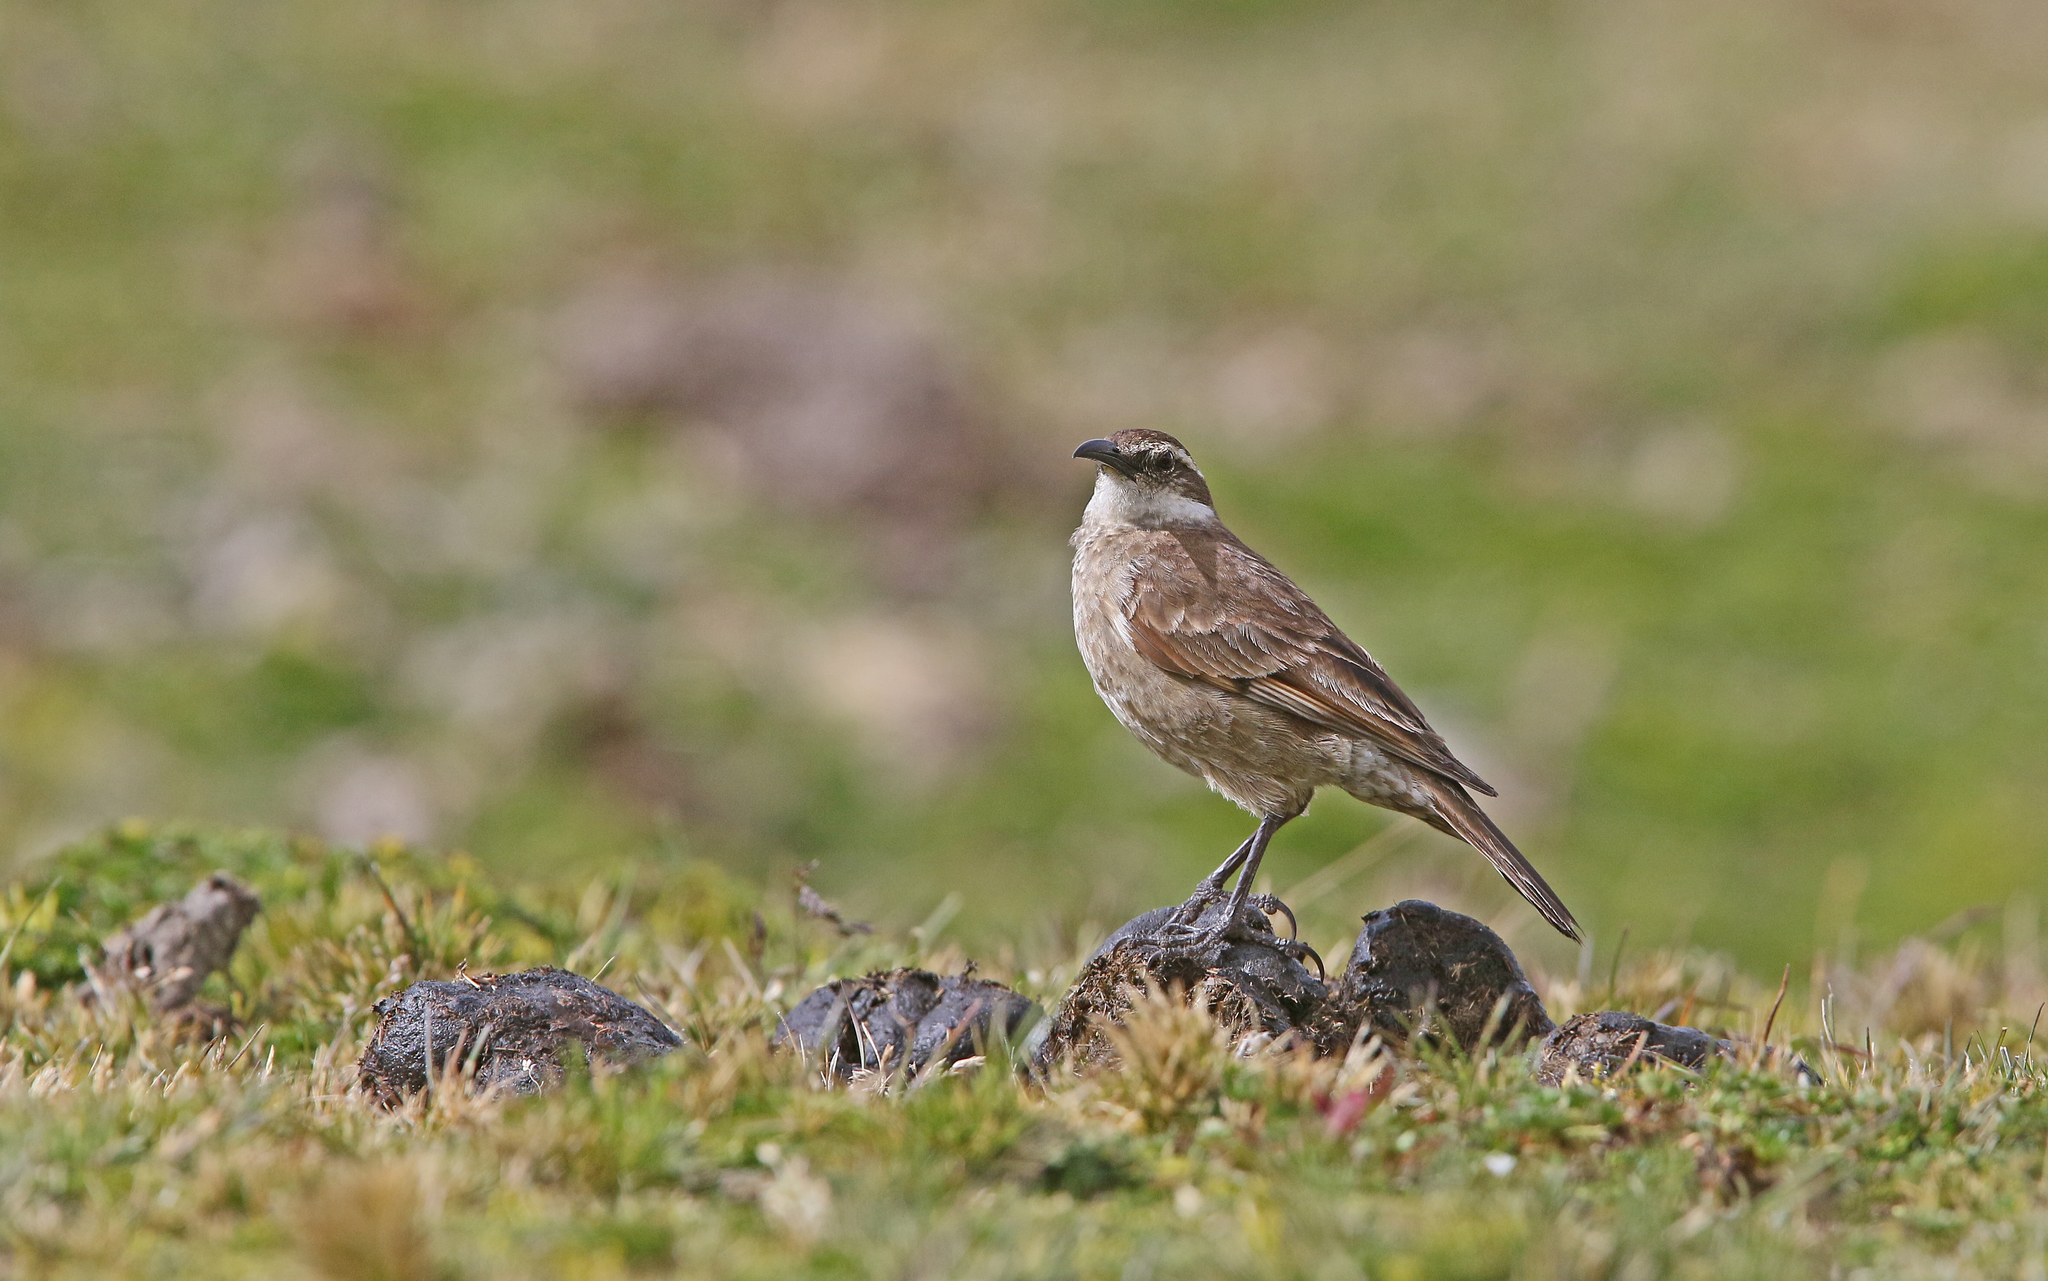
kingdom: Animalia
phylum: Chordata
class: Aves
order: Passeriformes
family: Furnariidae
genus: Cinclodes
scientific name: Cinclodes excelsior
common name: Stout-billed cinclodes
